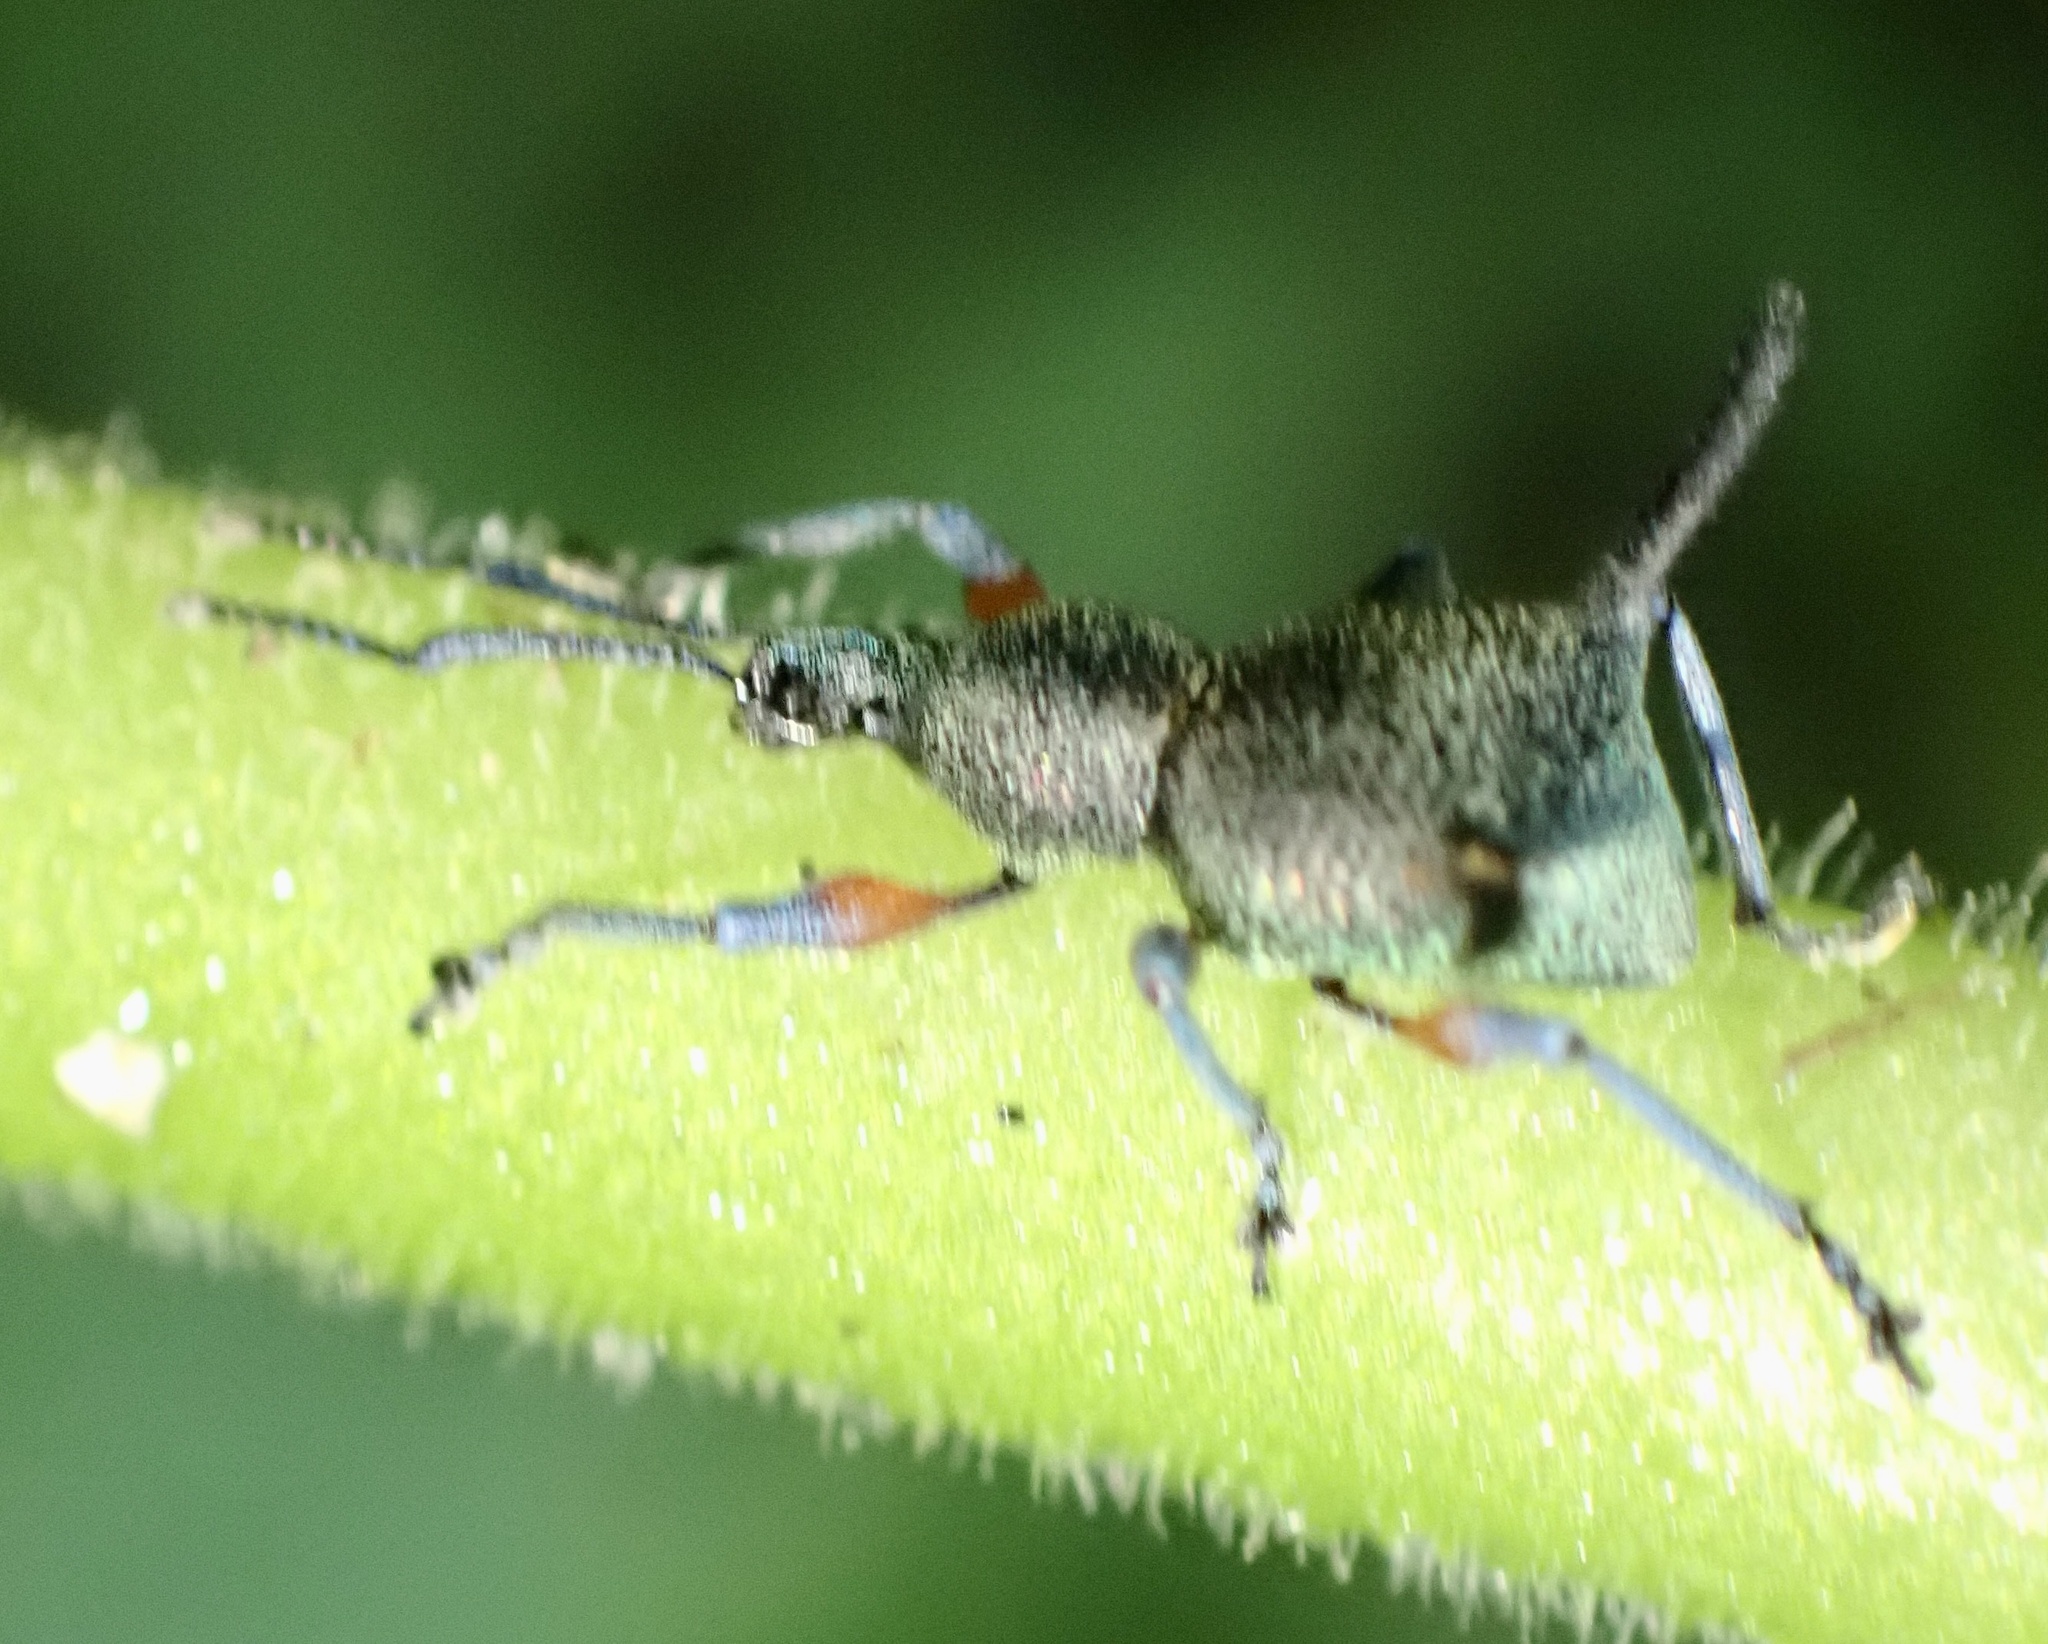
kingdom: Animalia
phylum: Arthropoda
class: Insecta
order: Coleoptera
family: Curculionidae
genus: Heteroglymma
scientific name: Heteroglymma biramosum
